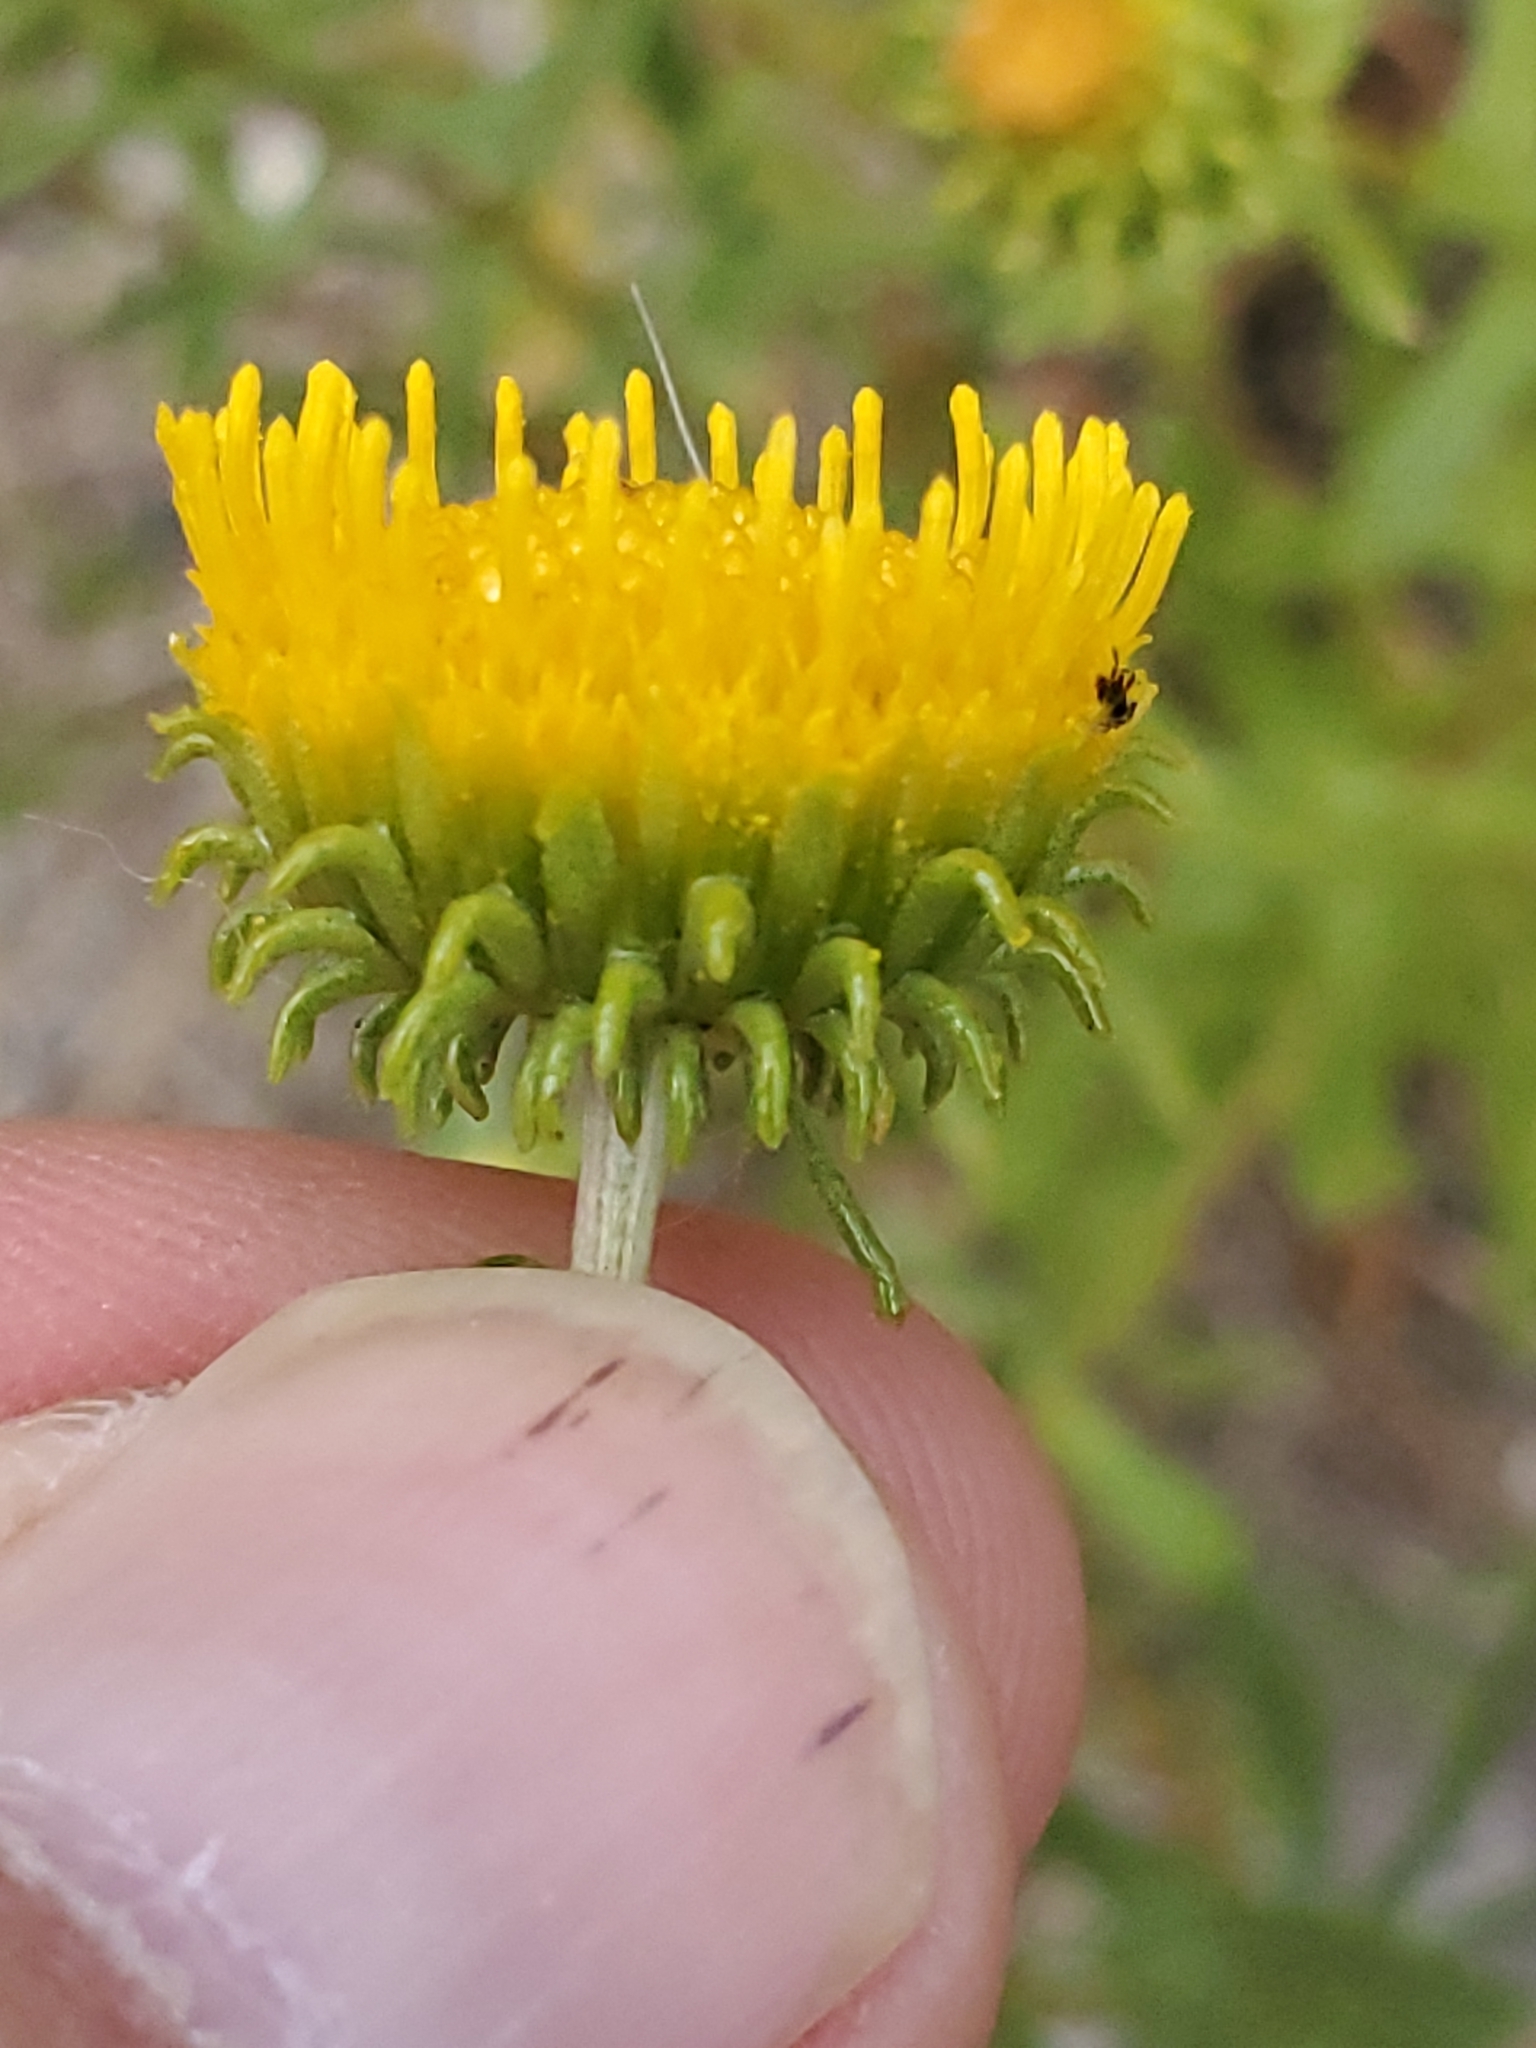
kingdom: Plantae
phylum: Tracheophyta
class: Magnoliopsida
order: Asterales
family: Asteraceae
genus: Grindelia
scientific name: Grindelia nuda
